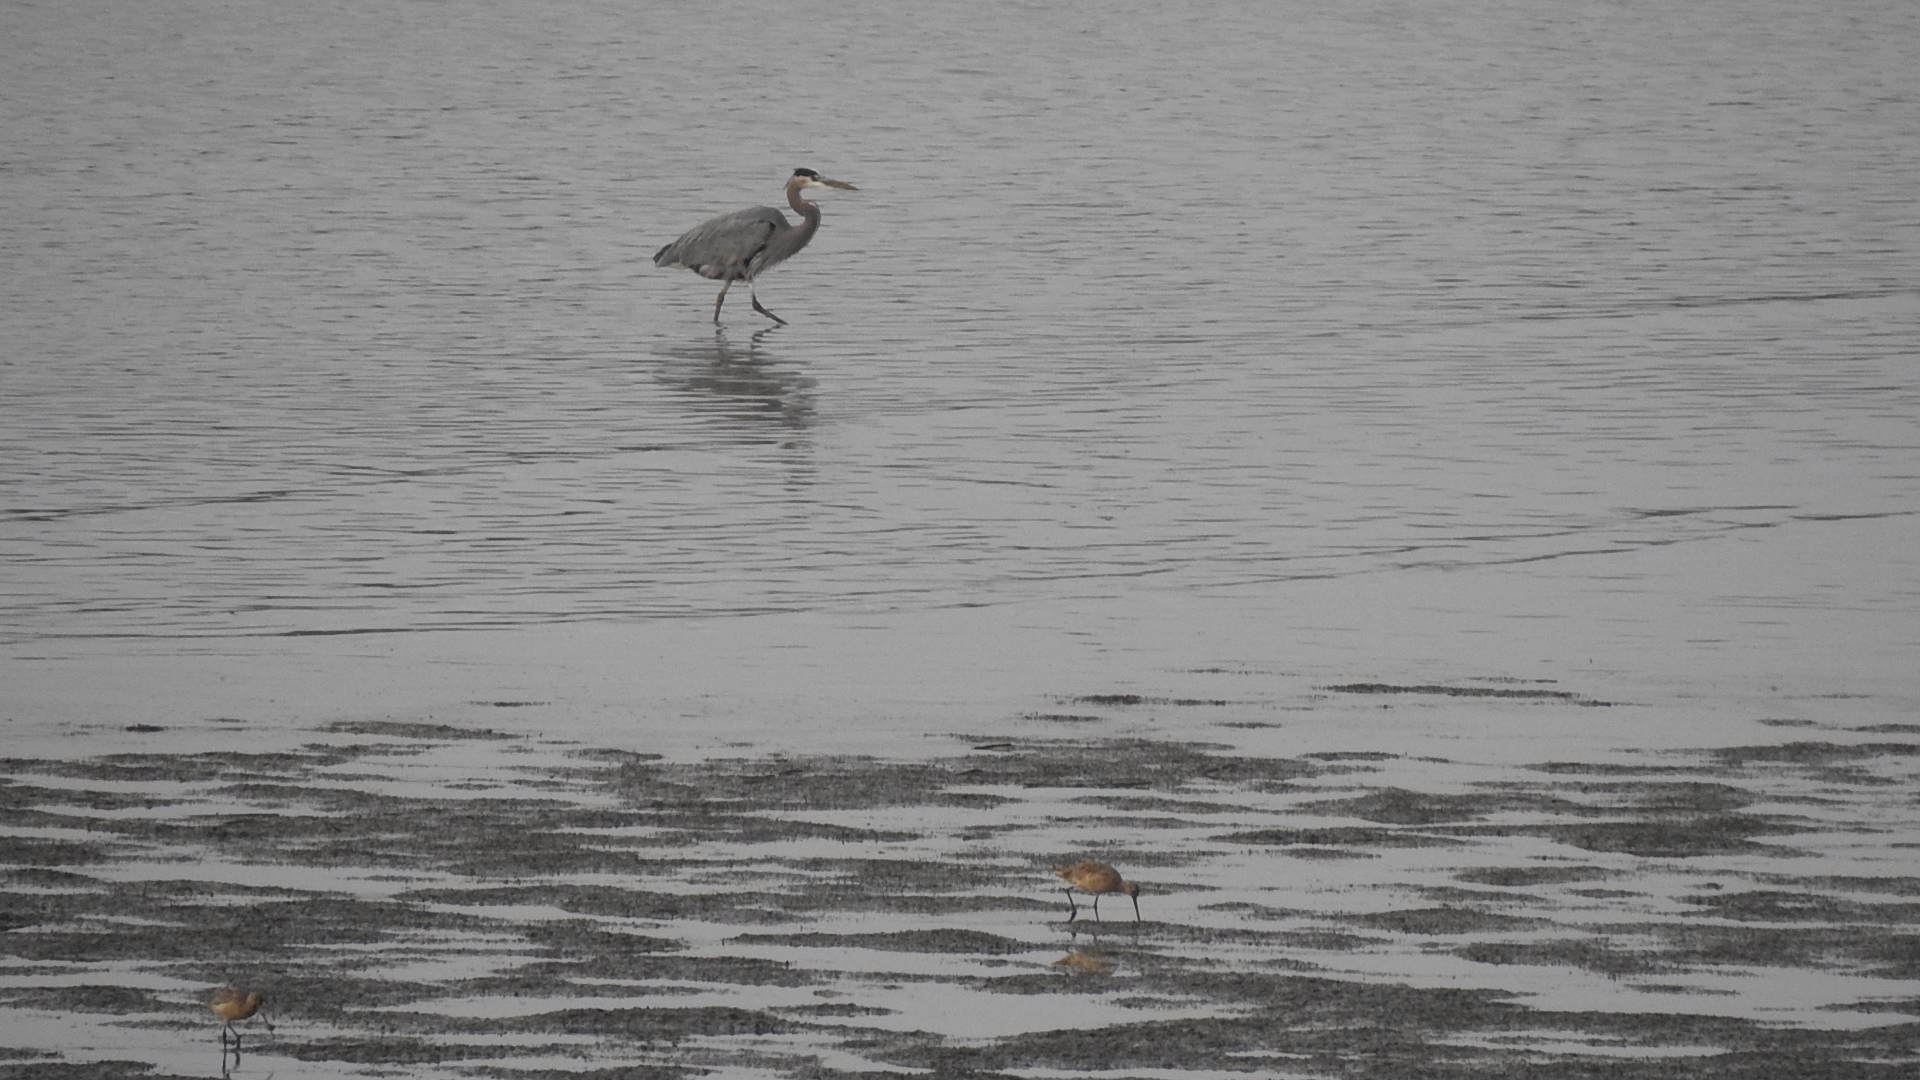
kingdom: Animalia
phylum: Chordata
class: Aves
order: Pelecaniformes
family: Ardeidae
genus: Ardea
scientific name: Ardea herodias
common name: Great blue heron
